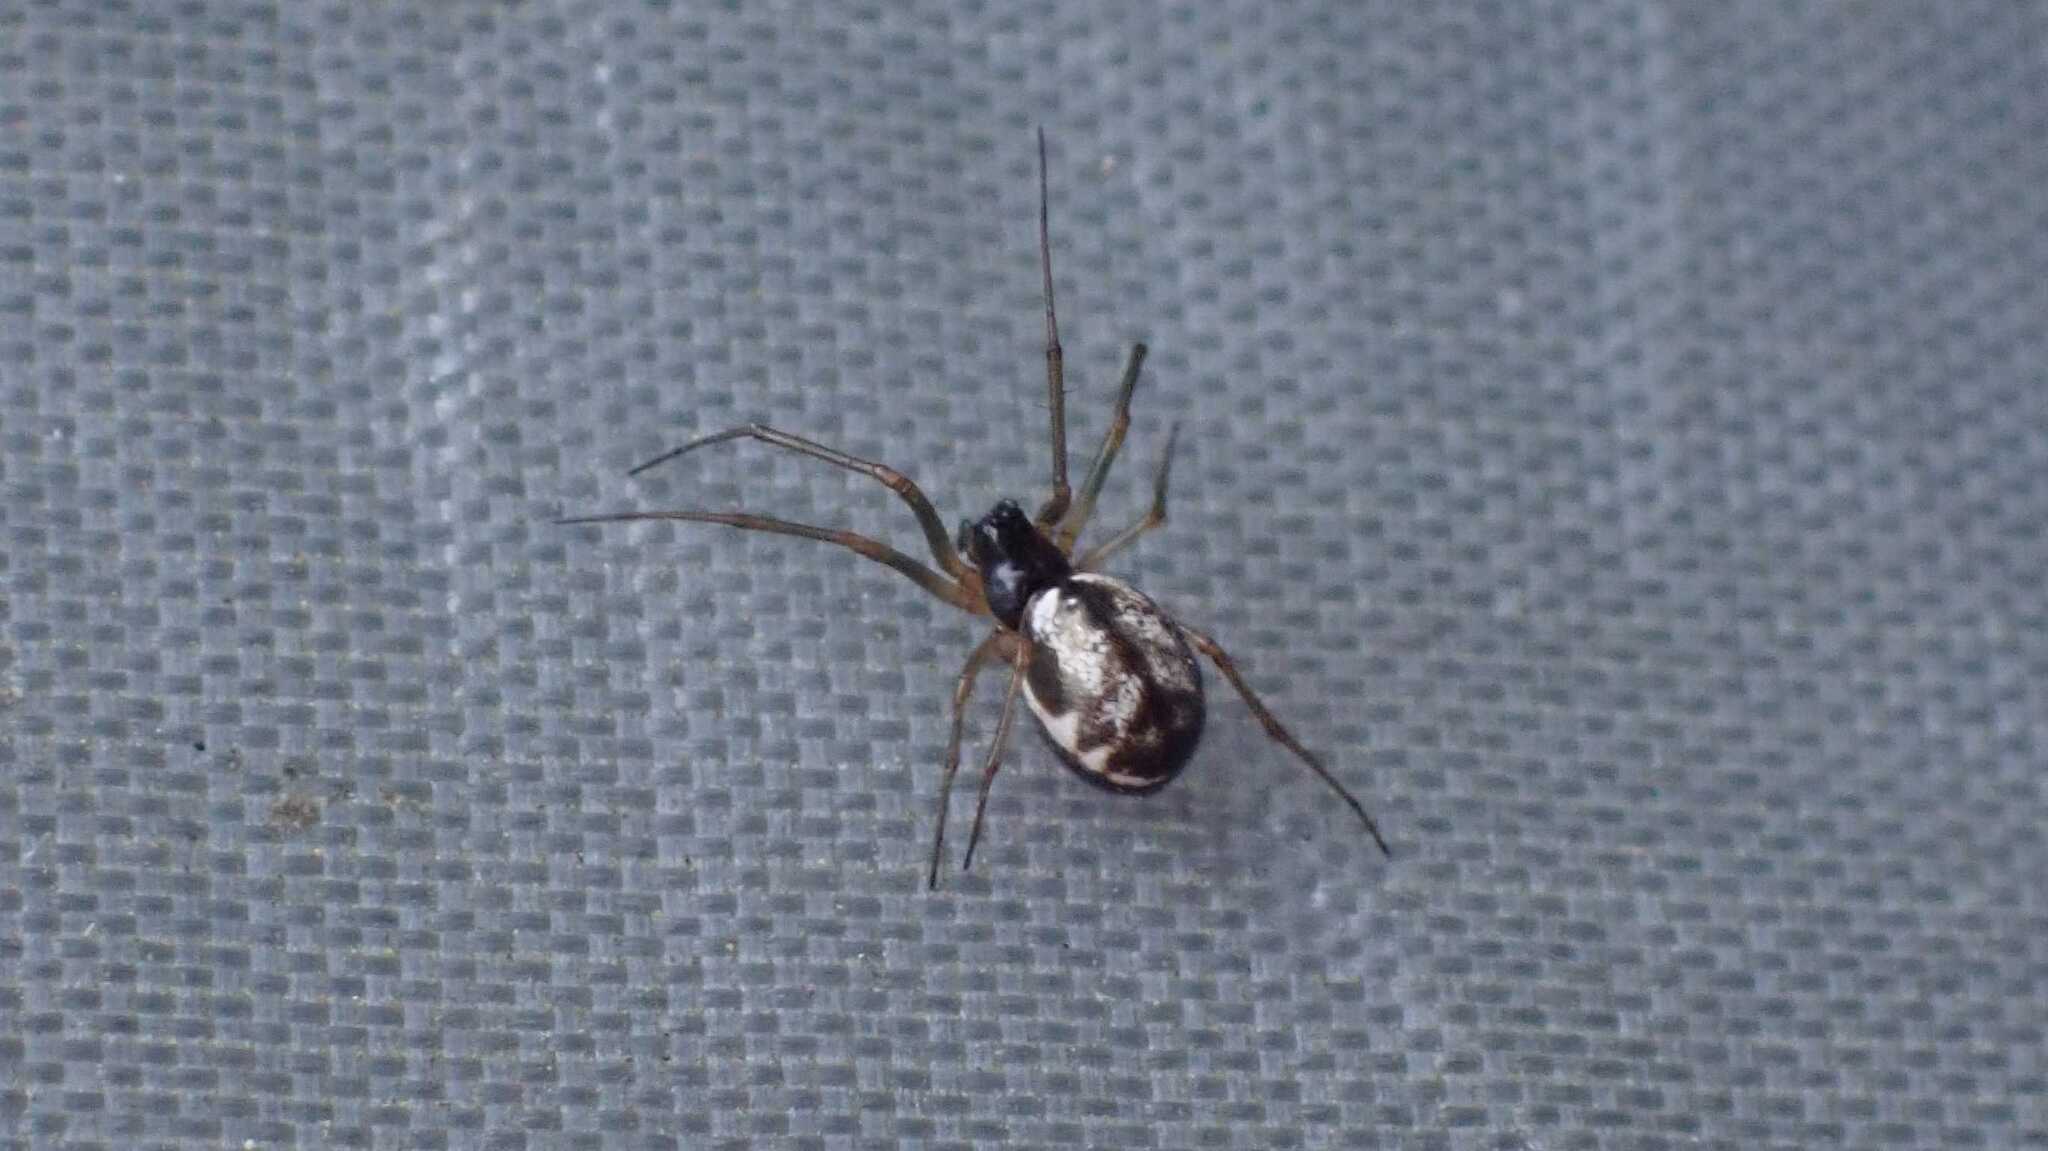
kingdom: Animalia
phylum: Arthropoda
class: Arachnida
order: Araneae
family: Linyphiidae
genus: Microlinyphia
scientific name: Microlinyphia pusilla
